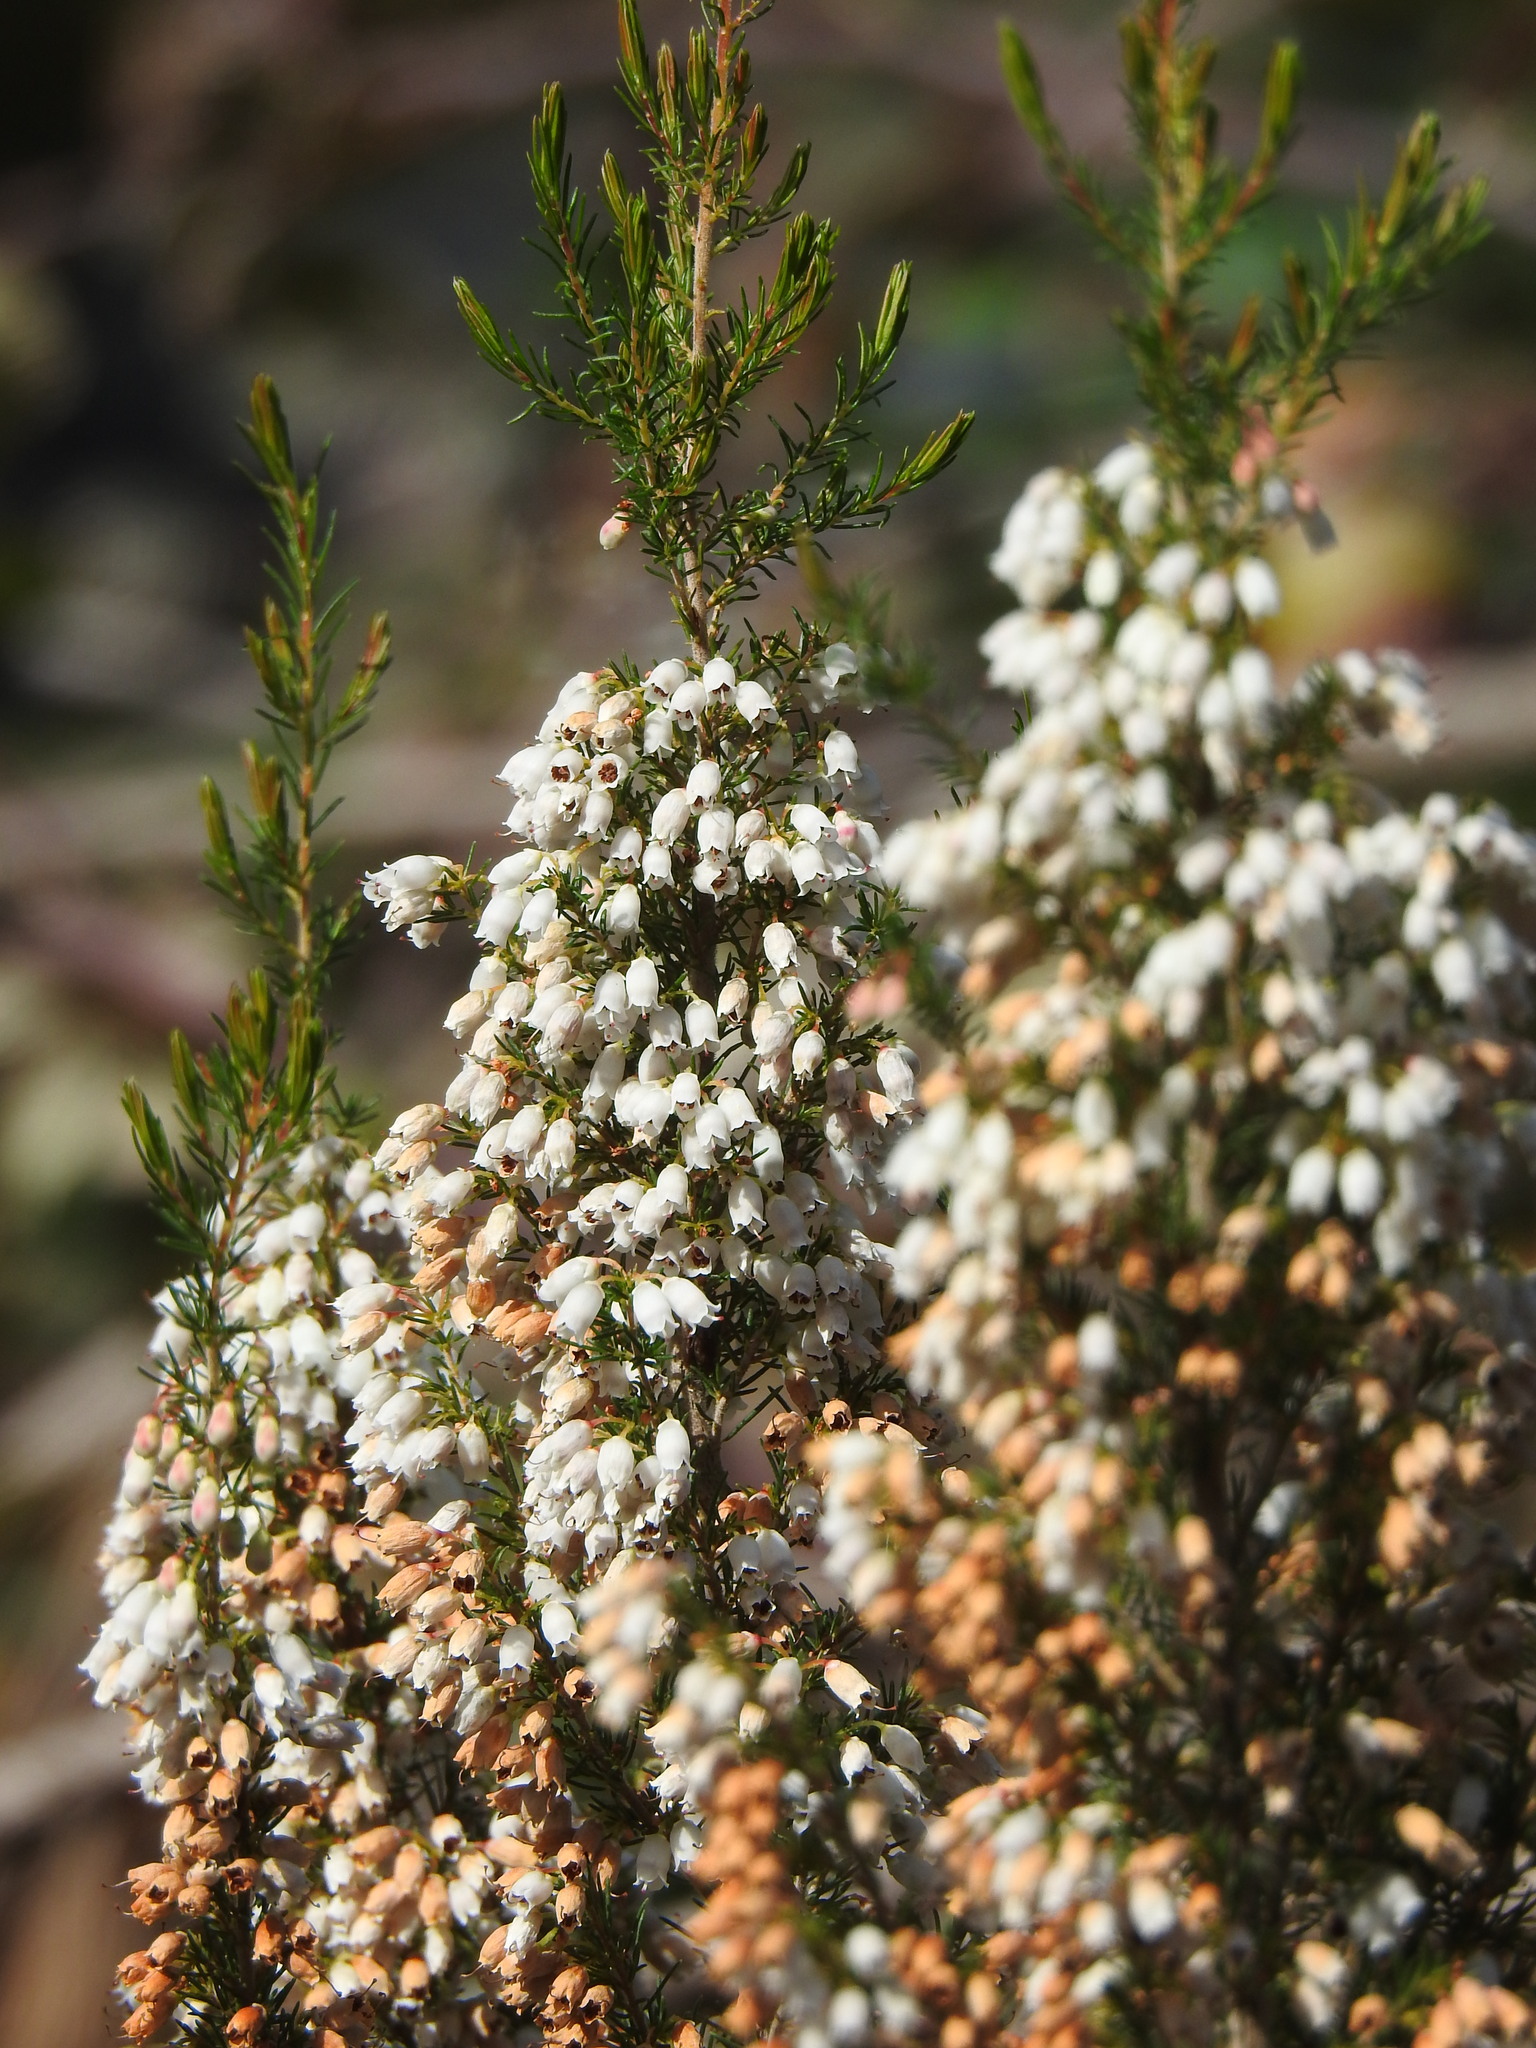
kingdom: Plantae
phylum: Tracheophyta
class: Magnoliopsida
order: Ericales
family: Ericaceae
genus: Erica
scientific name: Erica lusitanica
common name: Spanish heath
